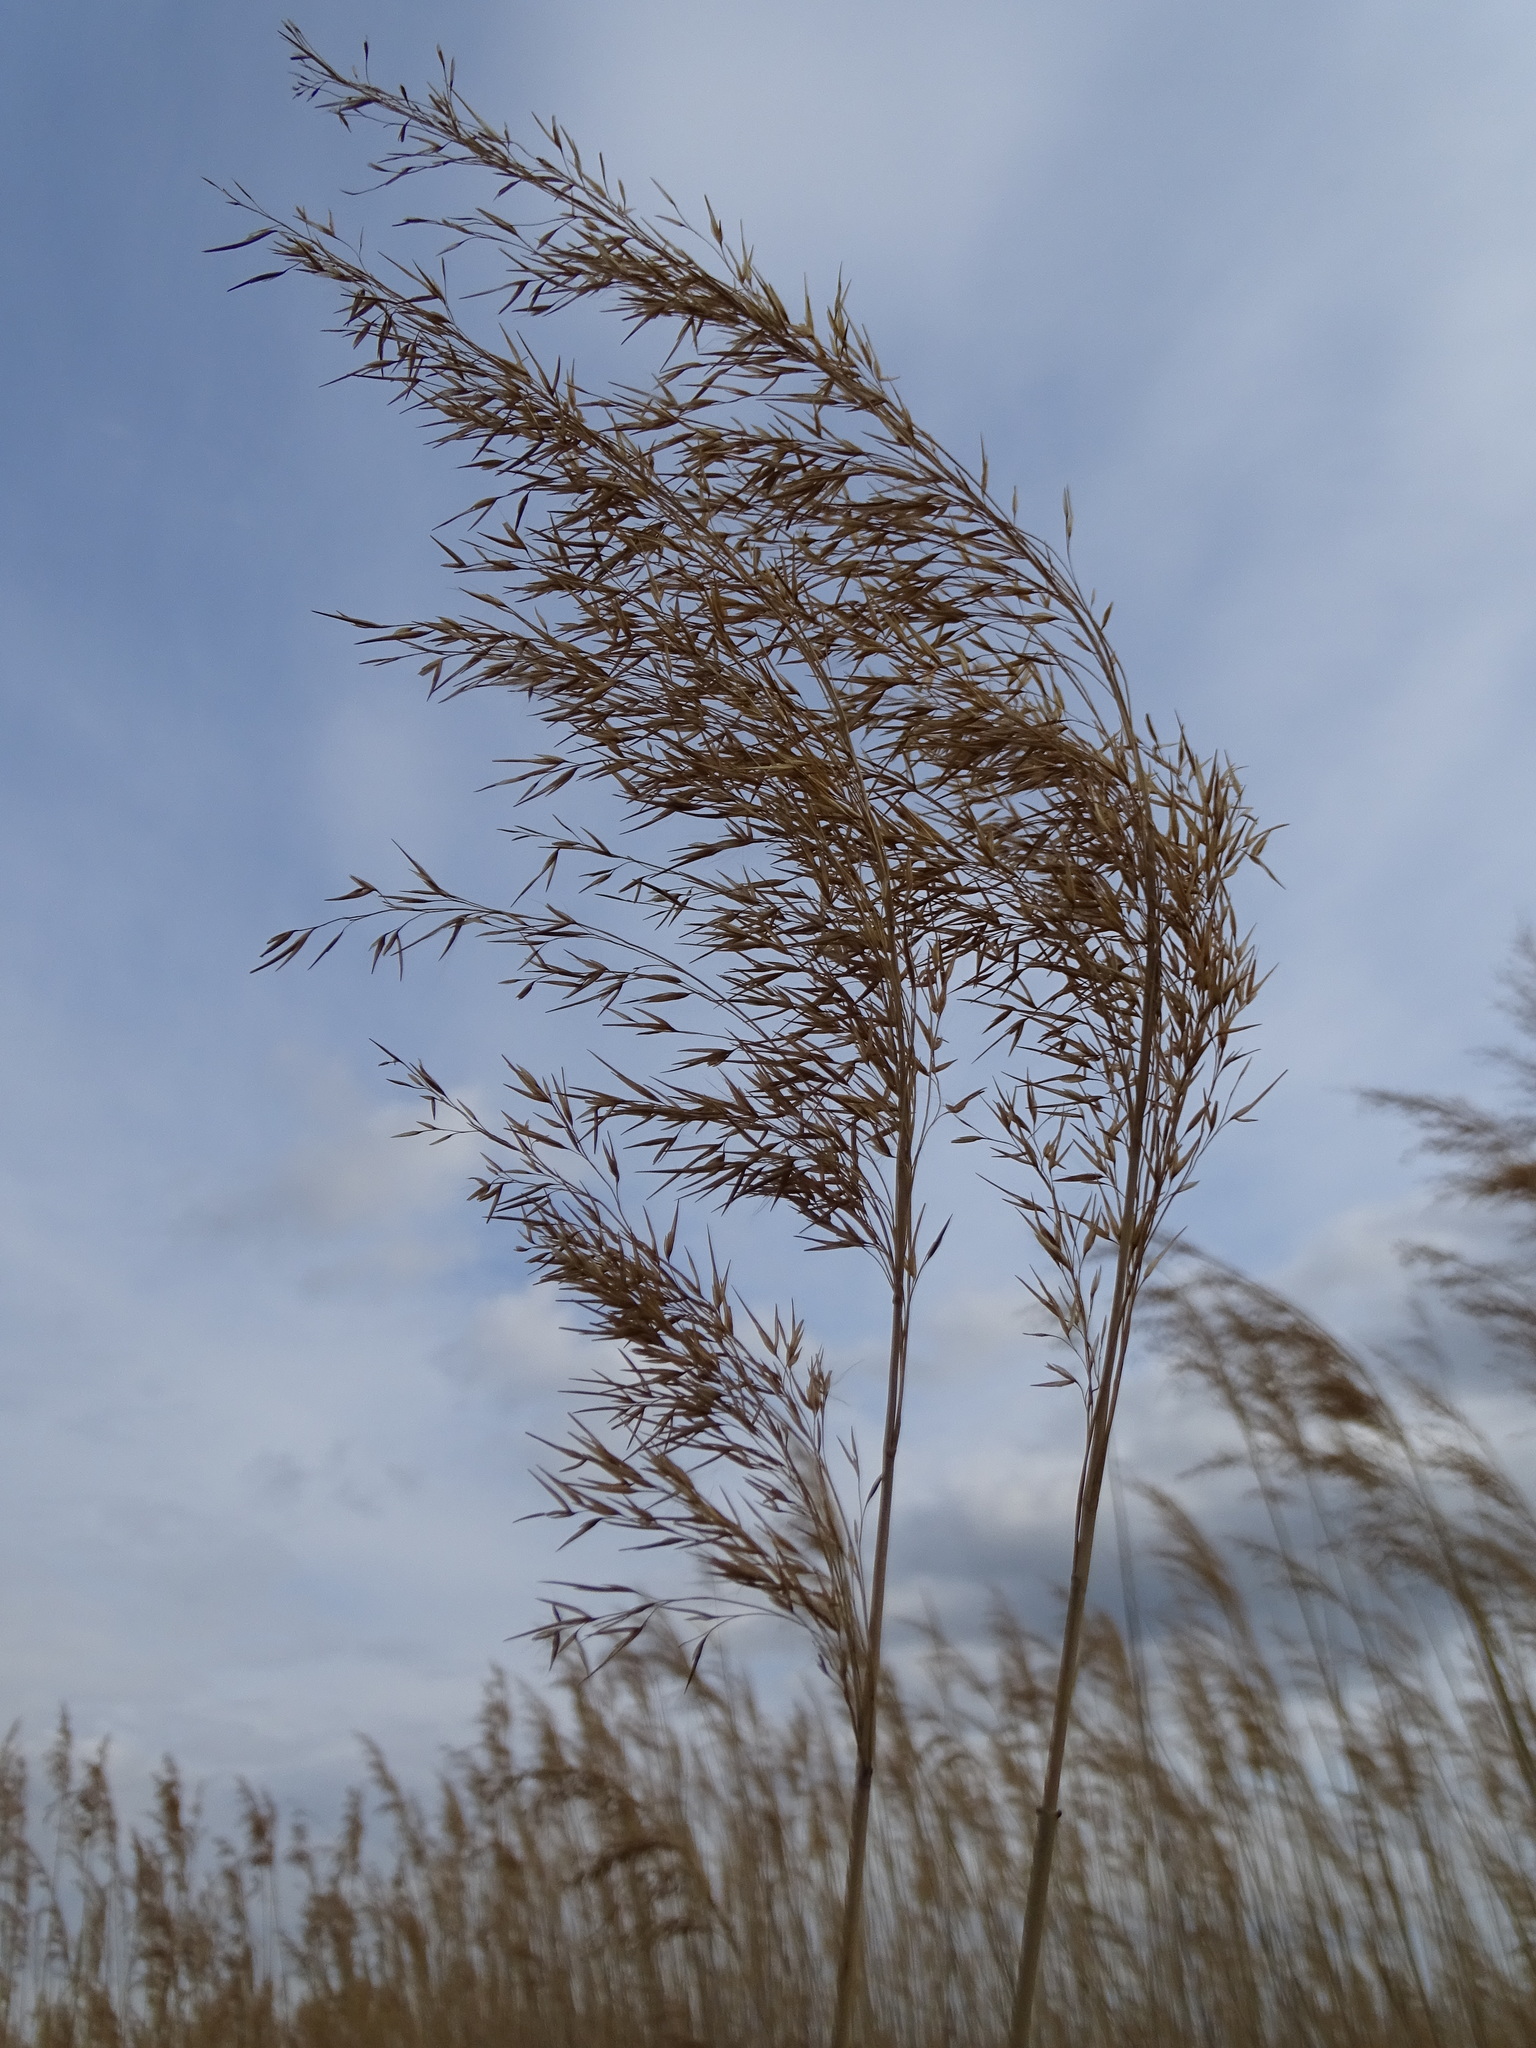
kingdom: Plantae
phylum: Tracheophyta
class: Liliopsida
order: Poales
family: Poaceae
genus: Phragmites
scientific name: Phragmites australis
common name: Common reed
